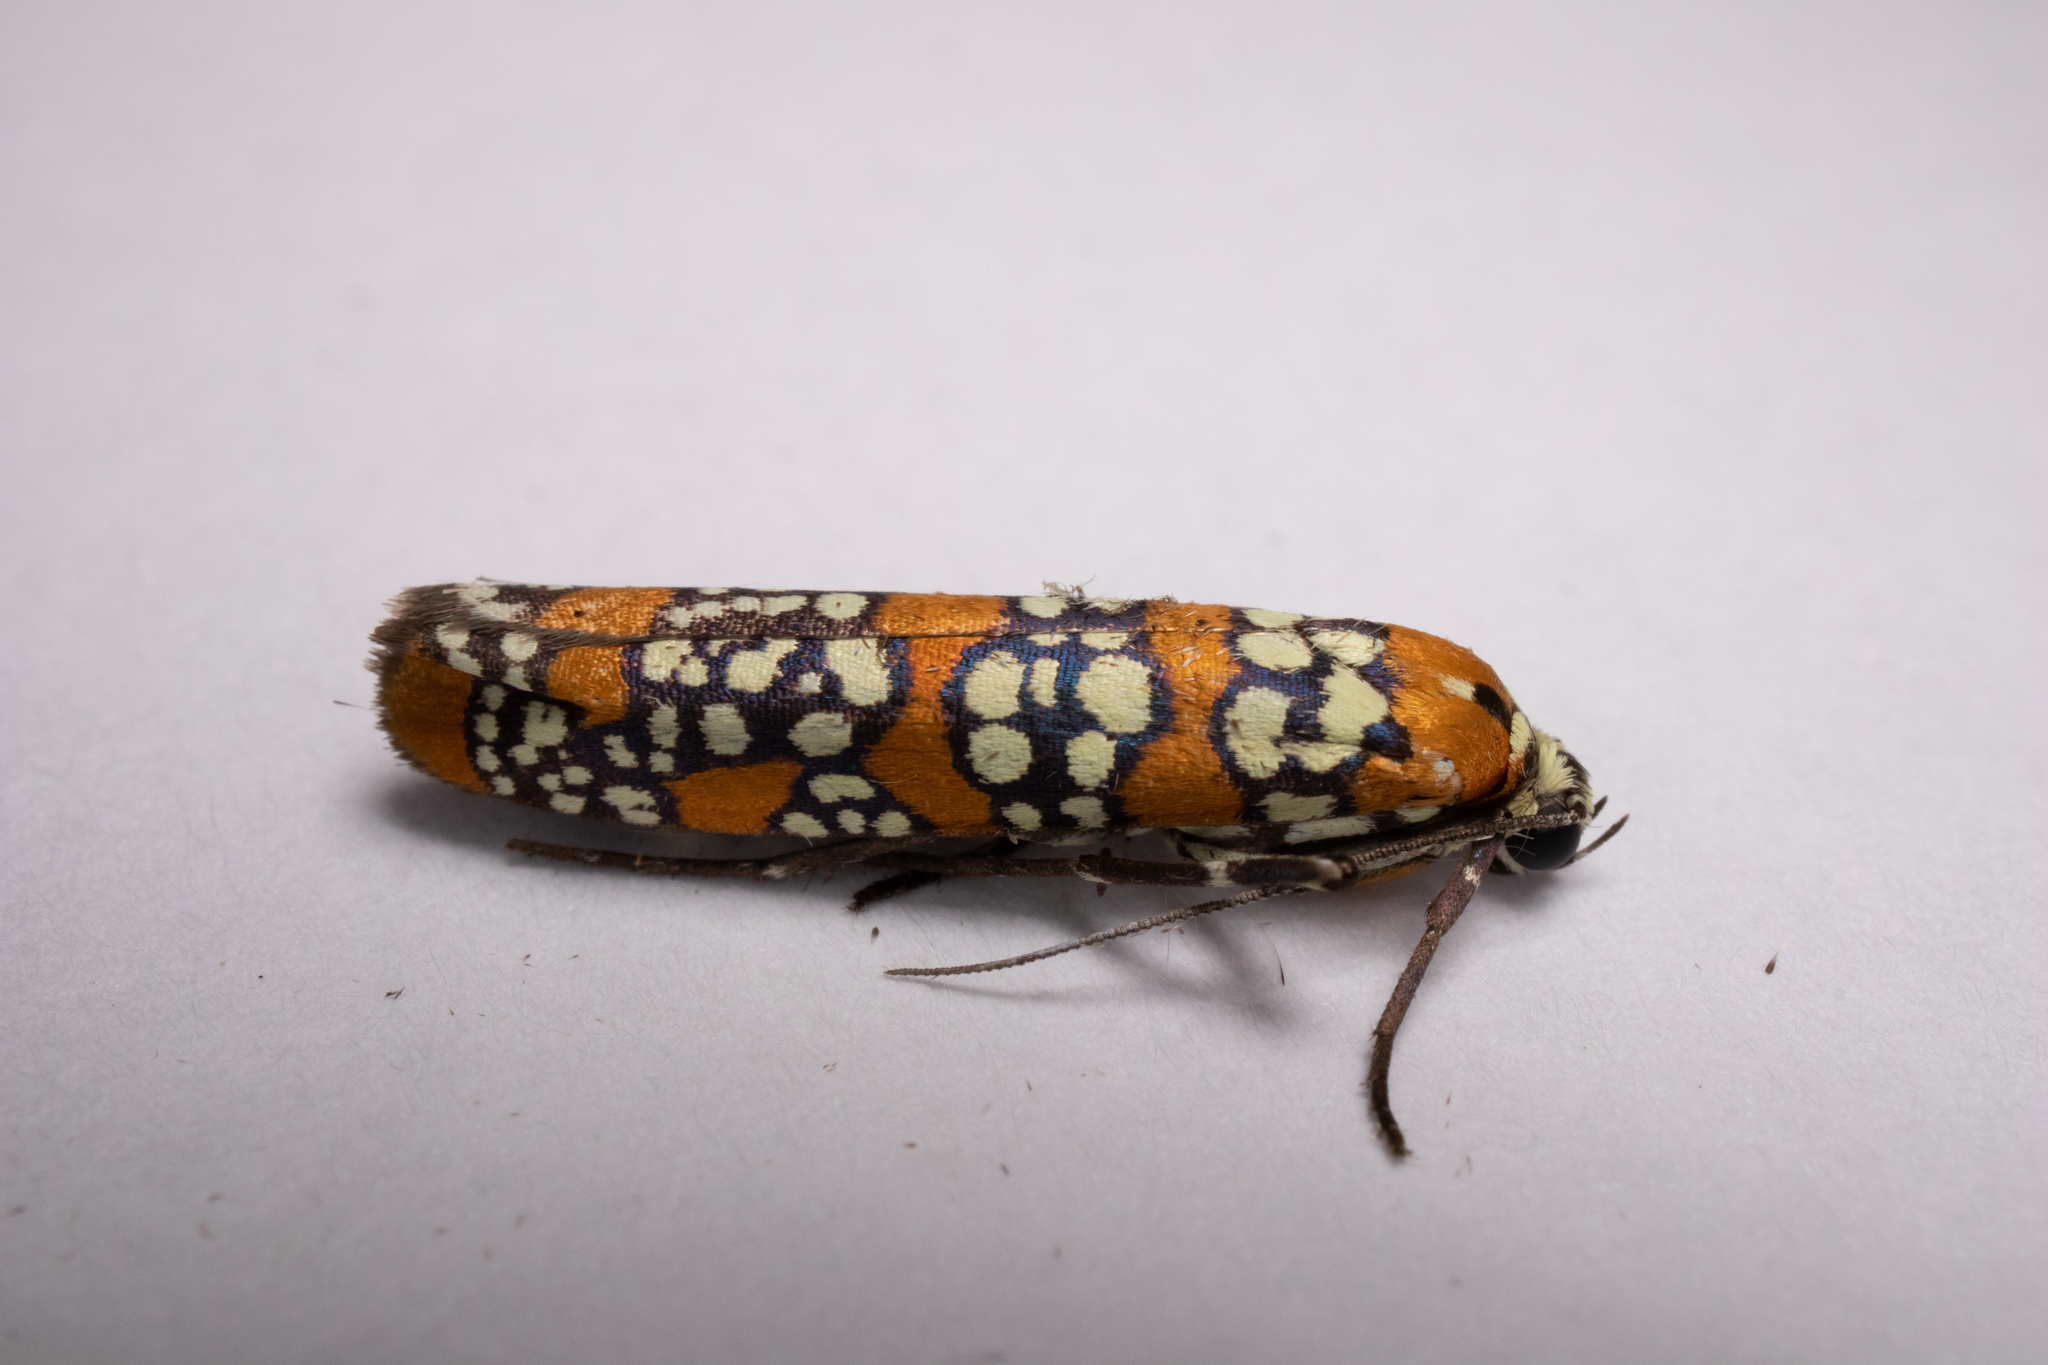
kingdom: Animalia
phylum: Arthropoda
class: Insecta
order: Lepidoptera
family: Attevidae
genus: Atteva
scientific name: Atteva punctella
